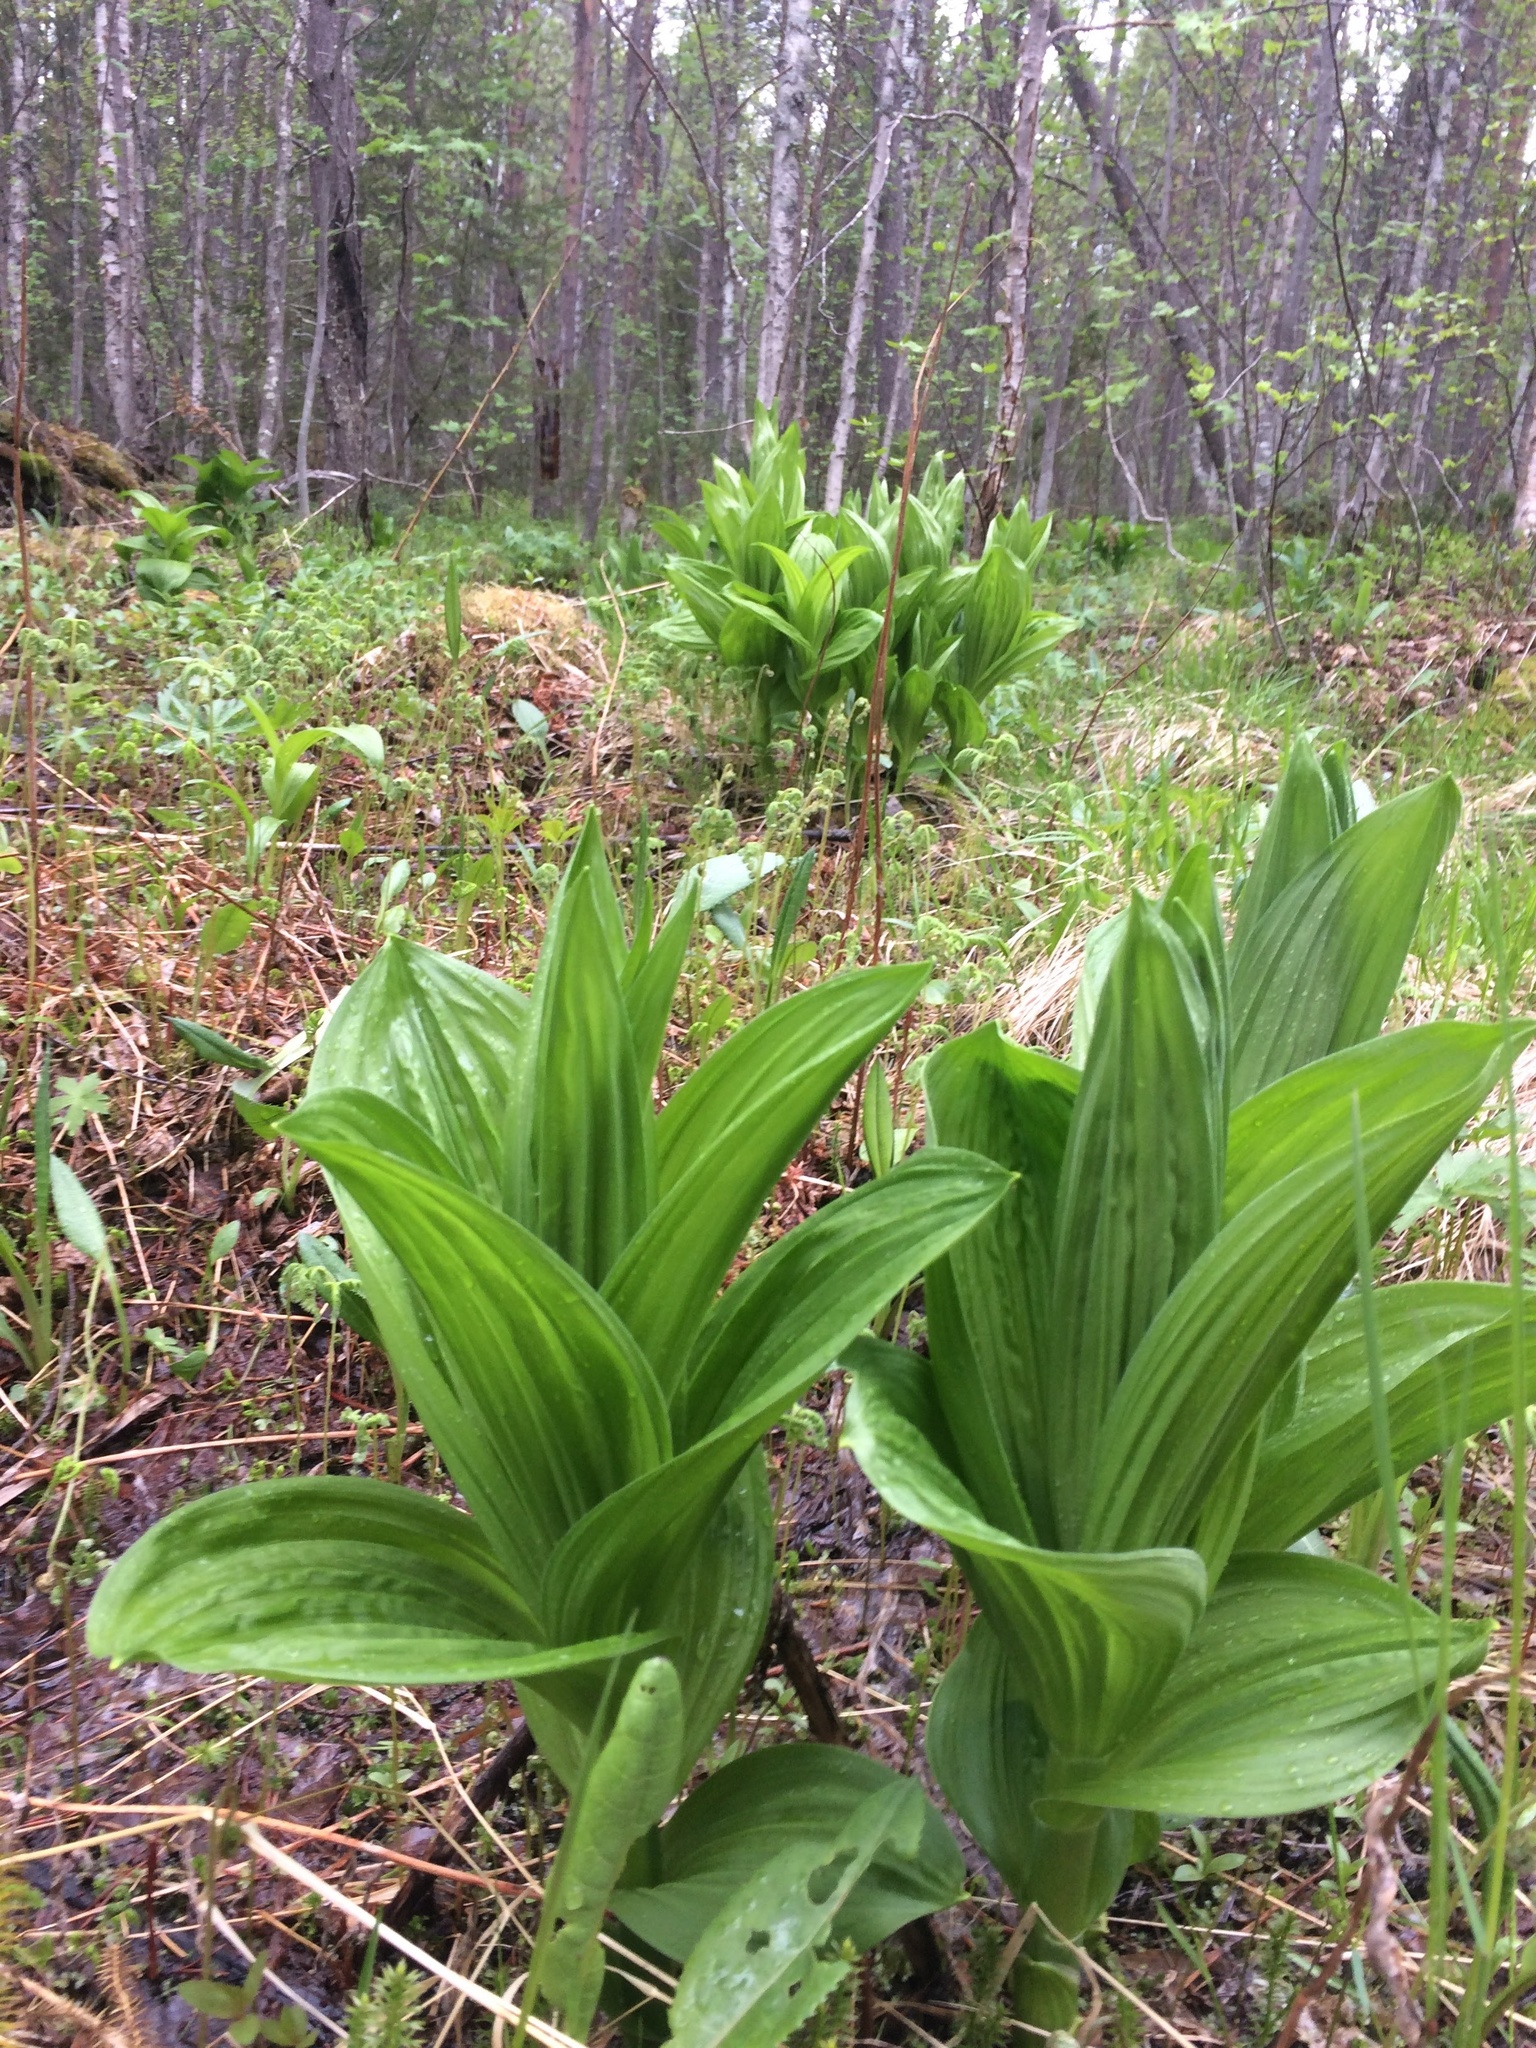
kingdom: Plantae
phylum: Tracheophyta
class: Liliopsida
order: Liliales
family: Melanthiaceae
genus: Veratrum
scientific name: Veratrum lobelianum
